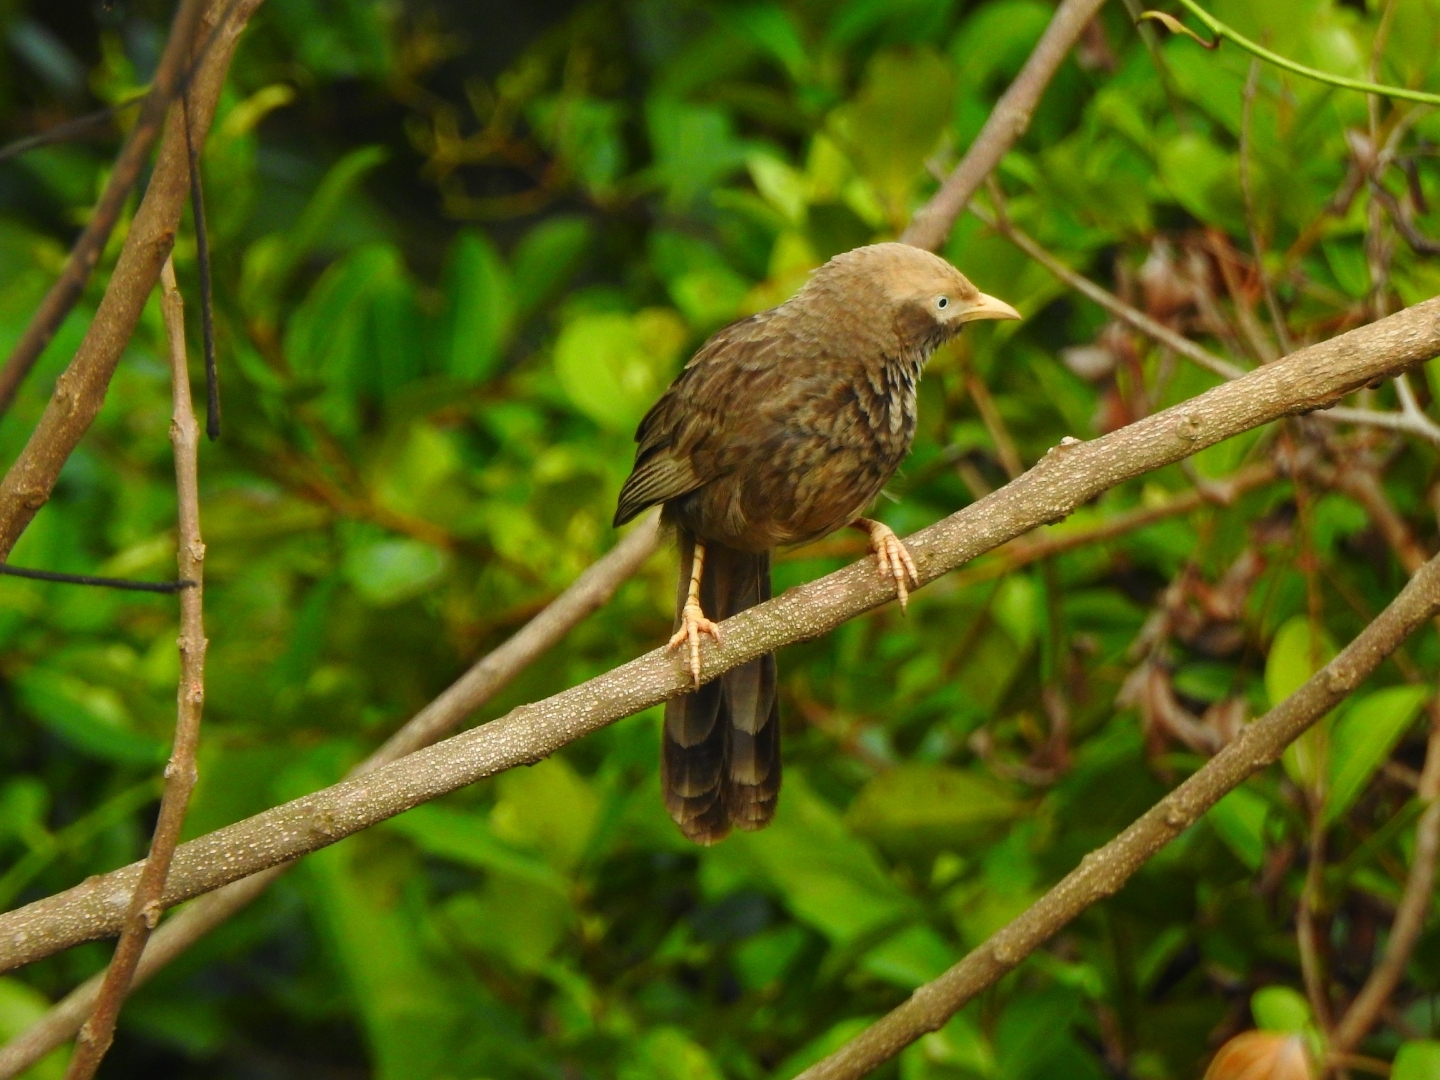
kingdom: Animalia
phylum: Chordata
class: Aves
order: Passeriformes
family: Leiothrichidae
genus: Turdoides
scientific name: Turdoides affinis
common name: Yellow-billed babbler
